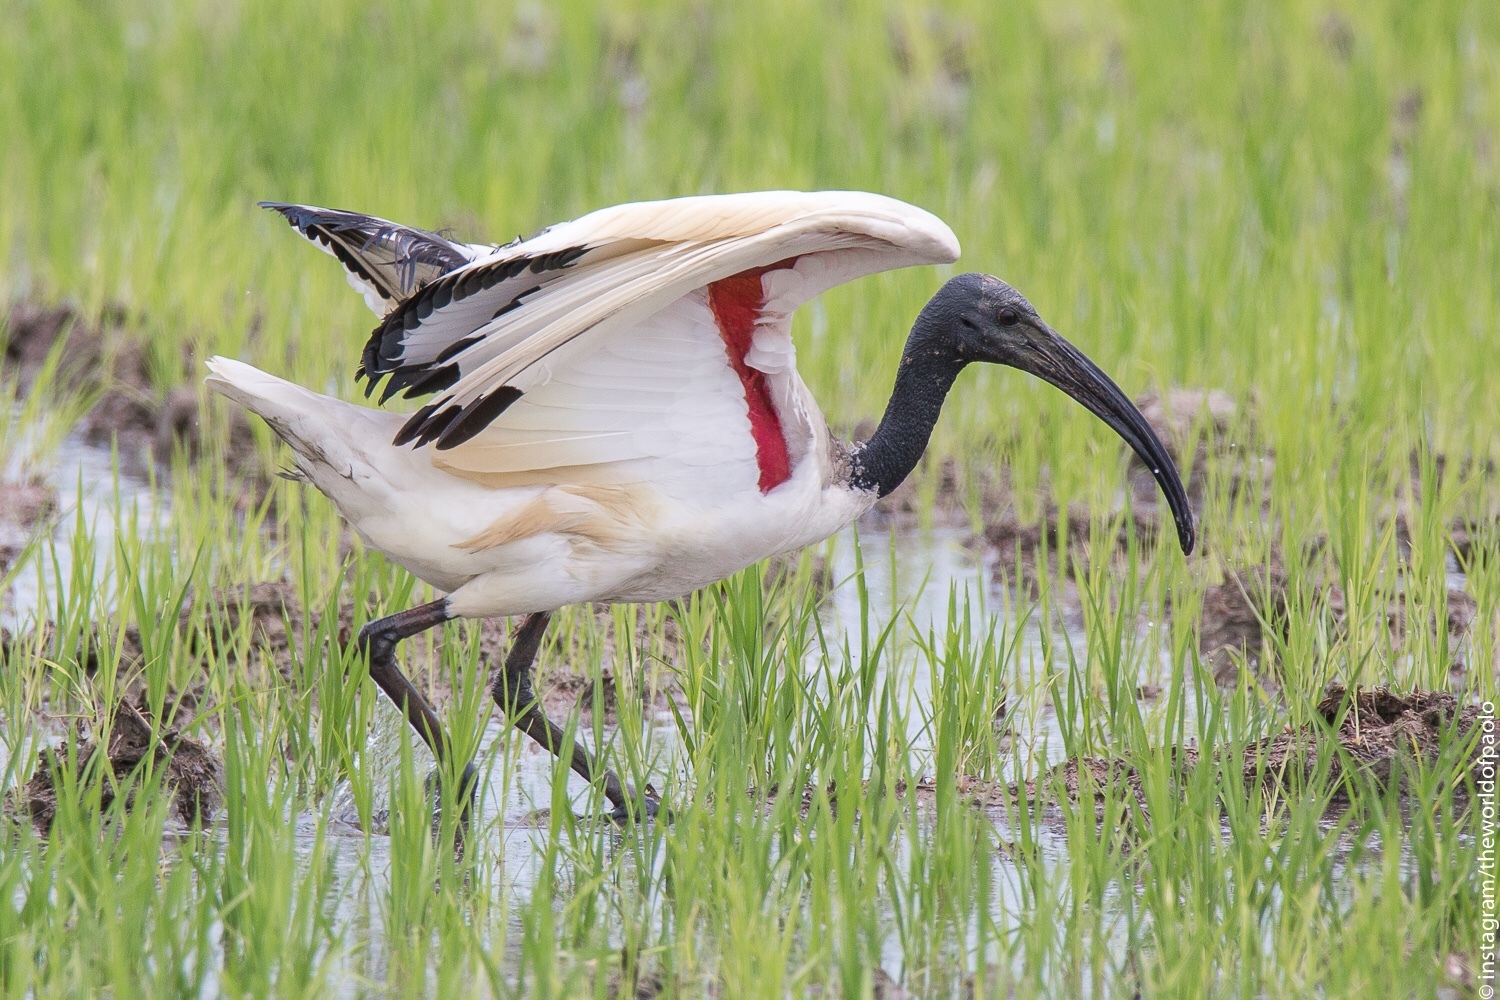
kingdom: Animalia
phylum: Chordata
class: Aves
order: Pelecaniformes
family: Threskiornithidae
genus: Threskiornis
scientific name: Threskiornis aethiopicus
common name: Sacred ibis
